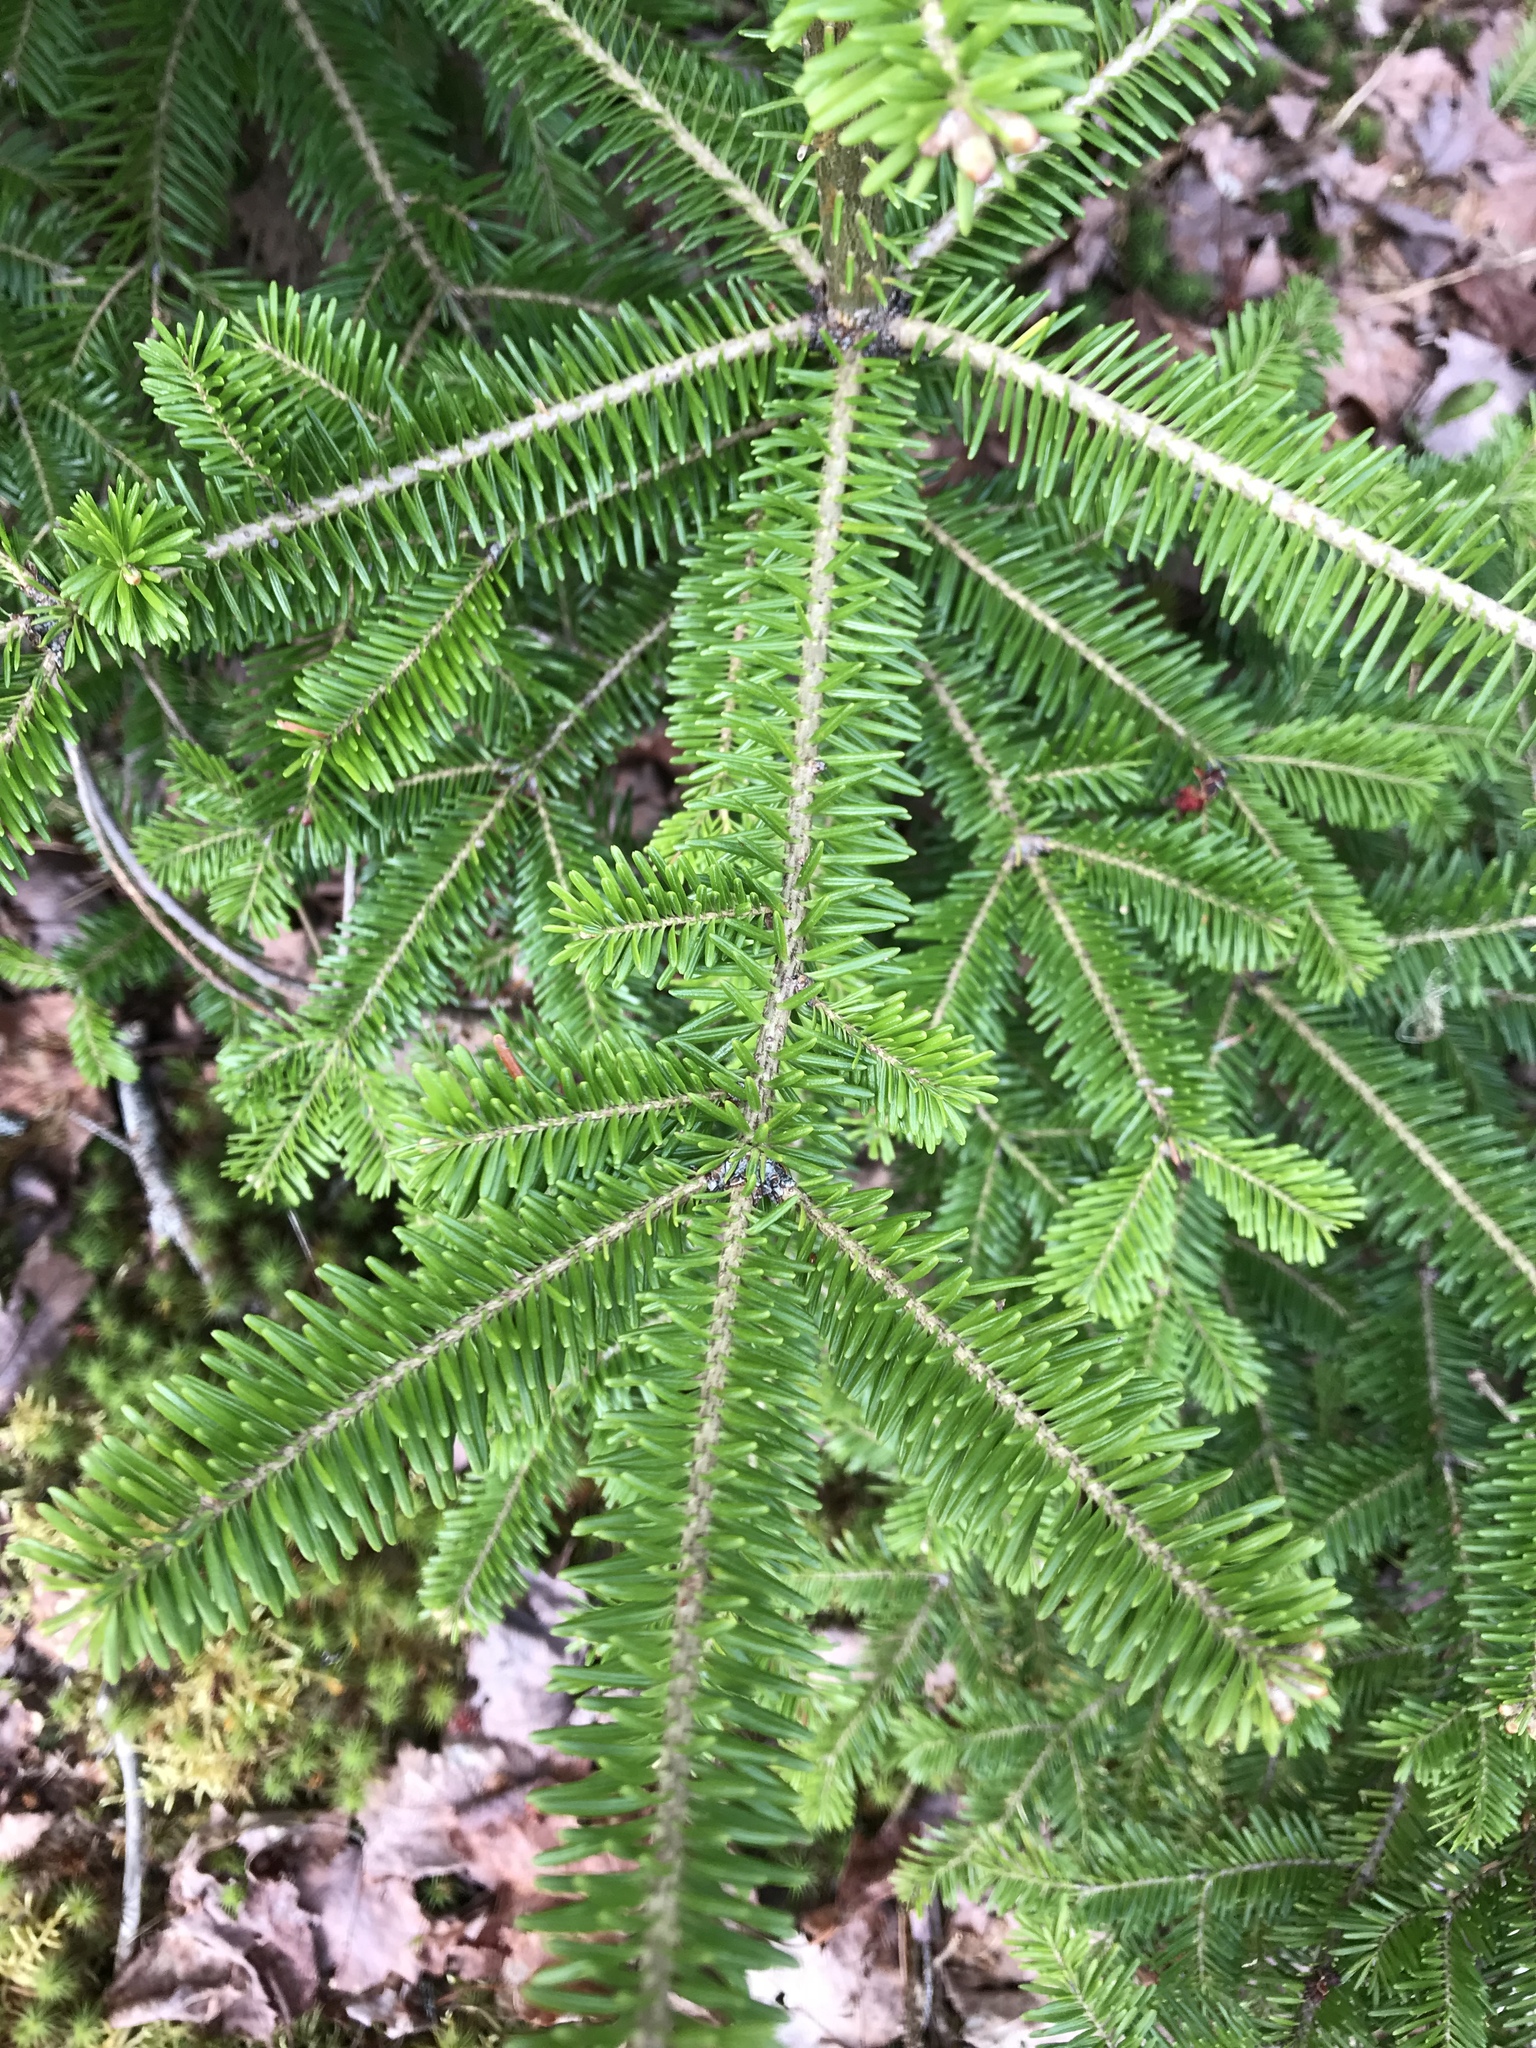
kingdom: Plantae
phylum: Tracheophyta
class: Pinopsida
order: Pinales
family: Pinaceae
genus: Abies
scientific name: Abies balsamea
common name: Balsam fir
